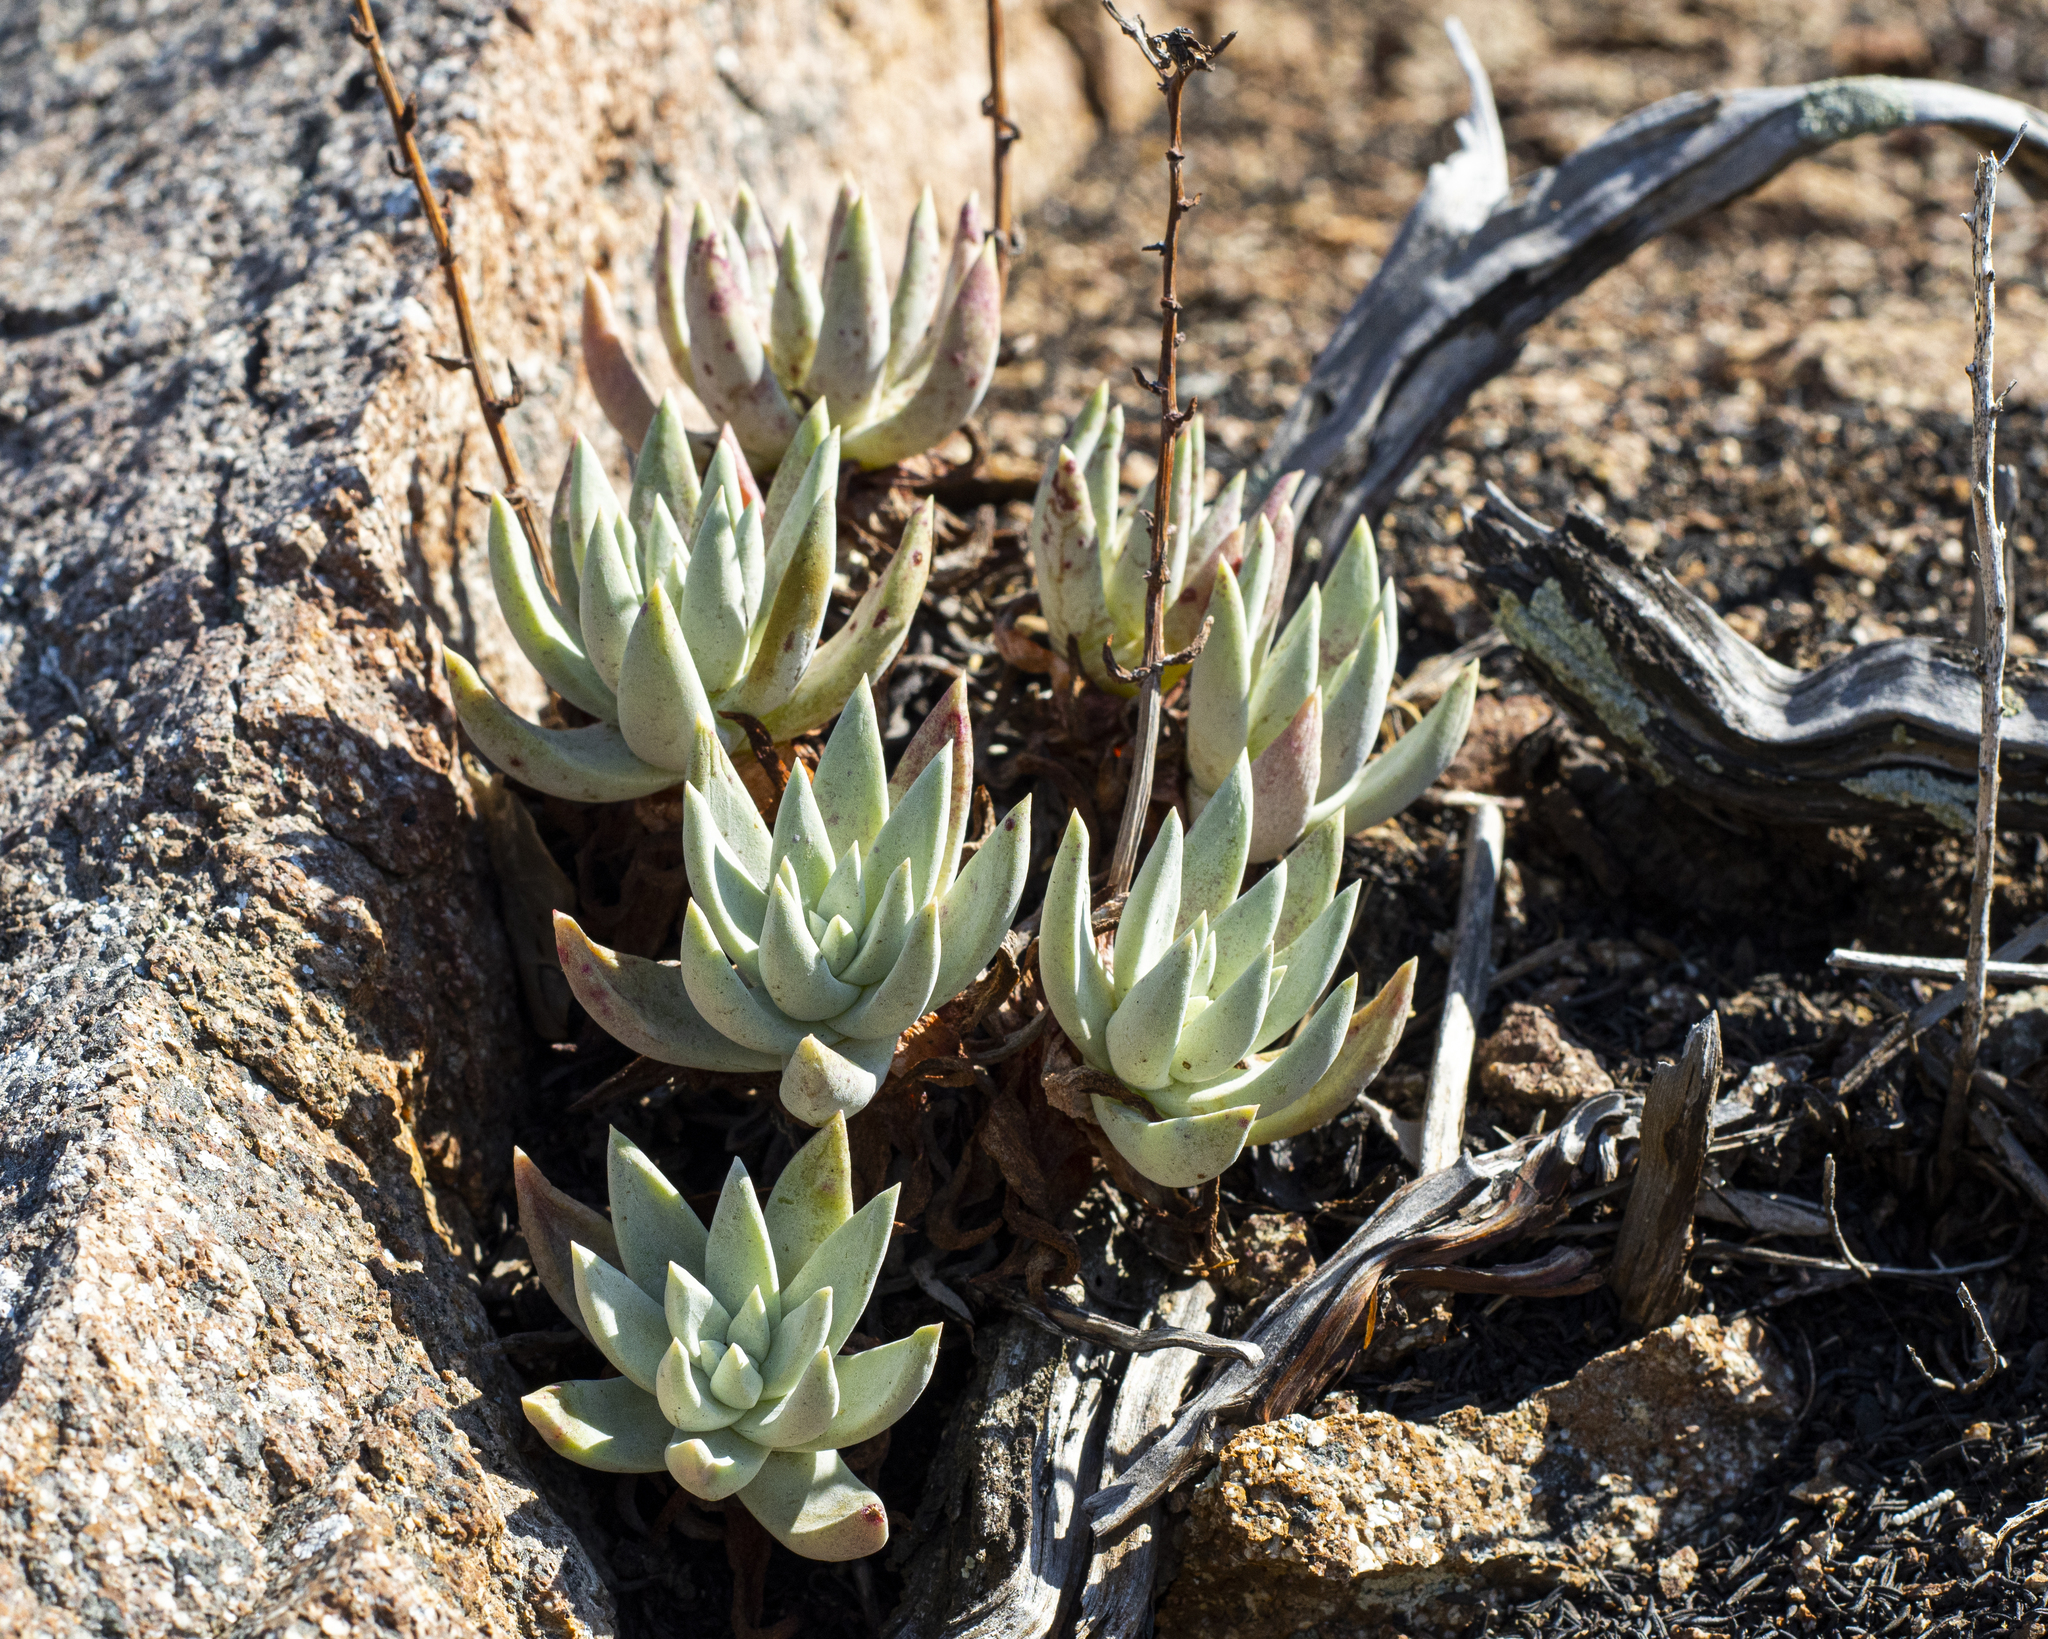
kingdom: Plantae
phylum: Tracheophyta
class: Magnoliopsida
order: Saxifragales
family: Crassulaceae
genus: Dudleya
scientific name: Dudleya campanulata
